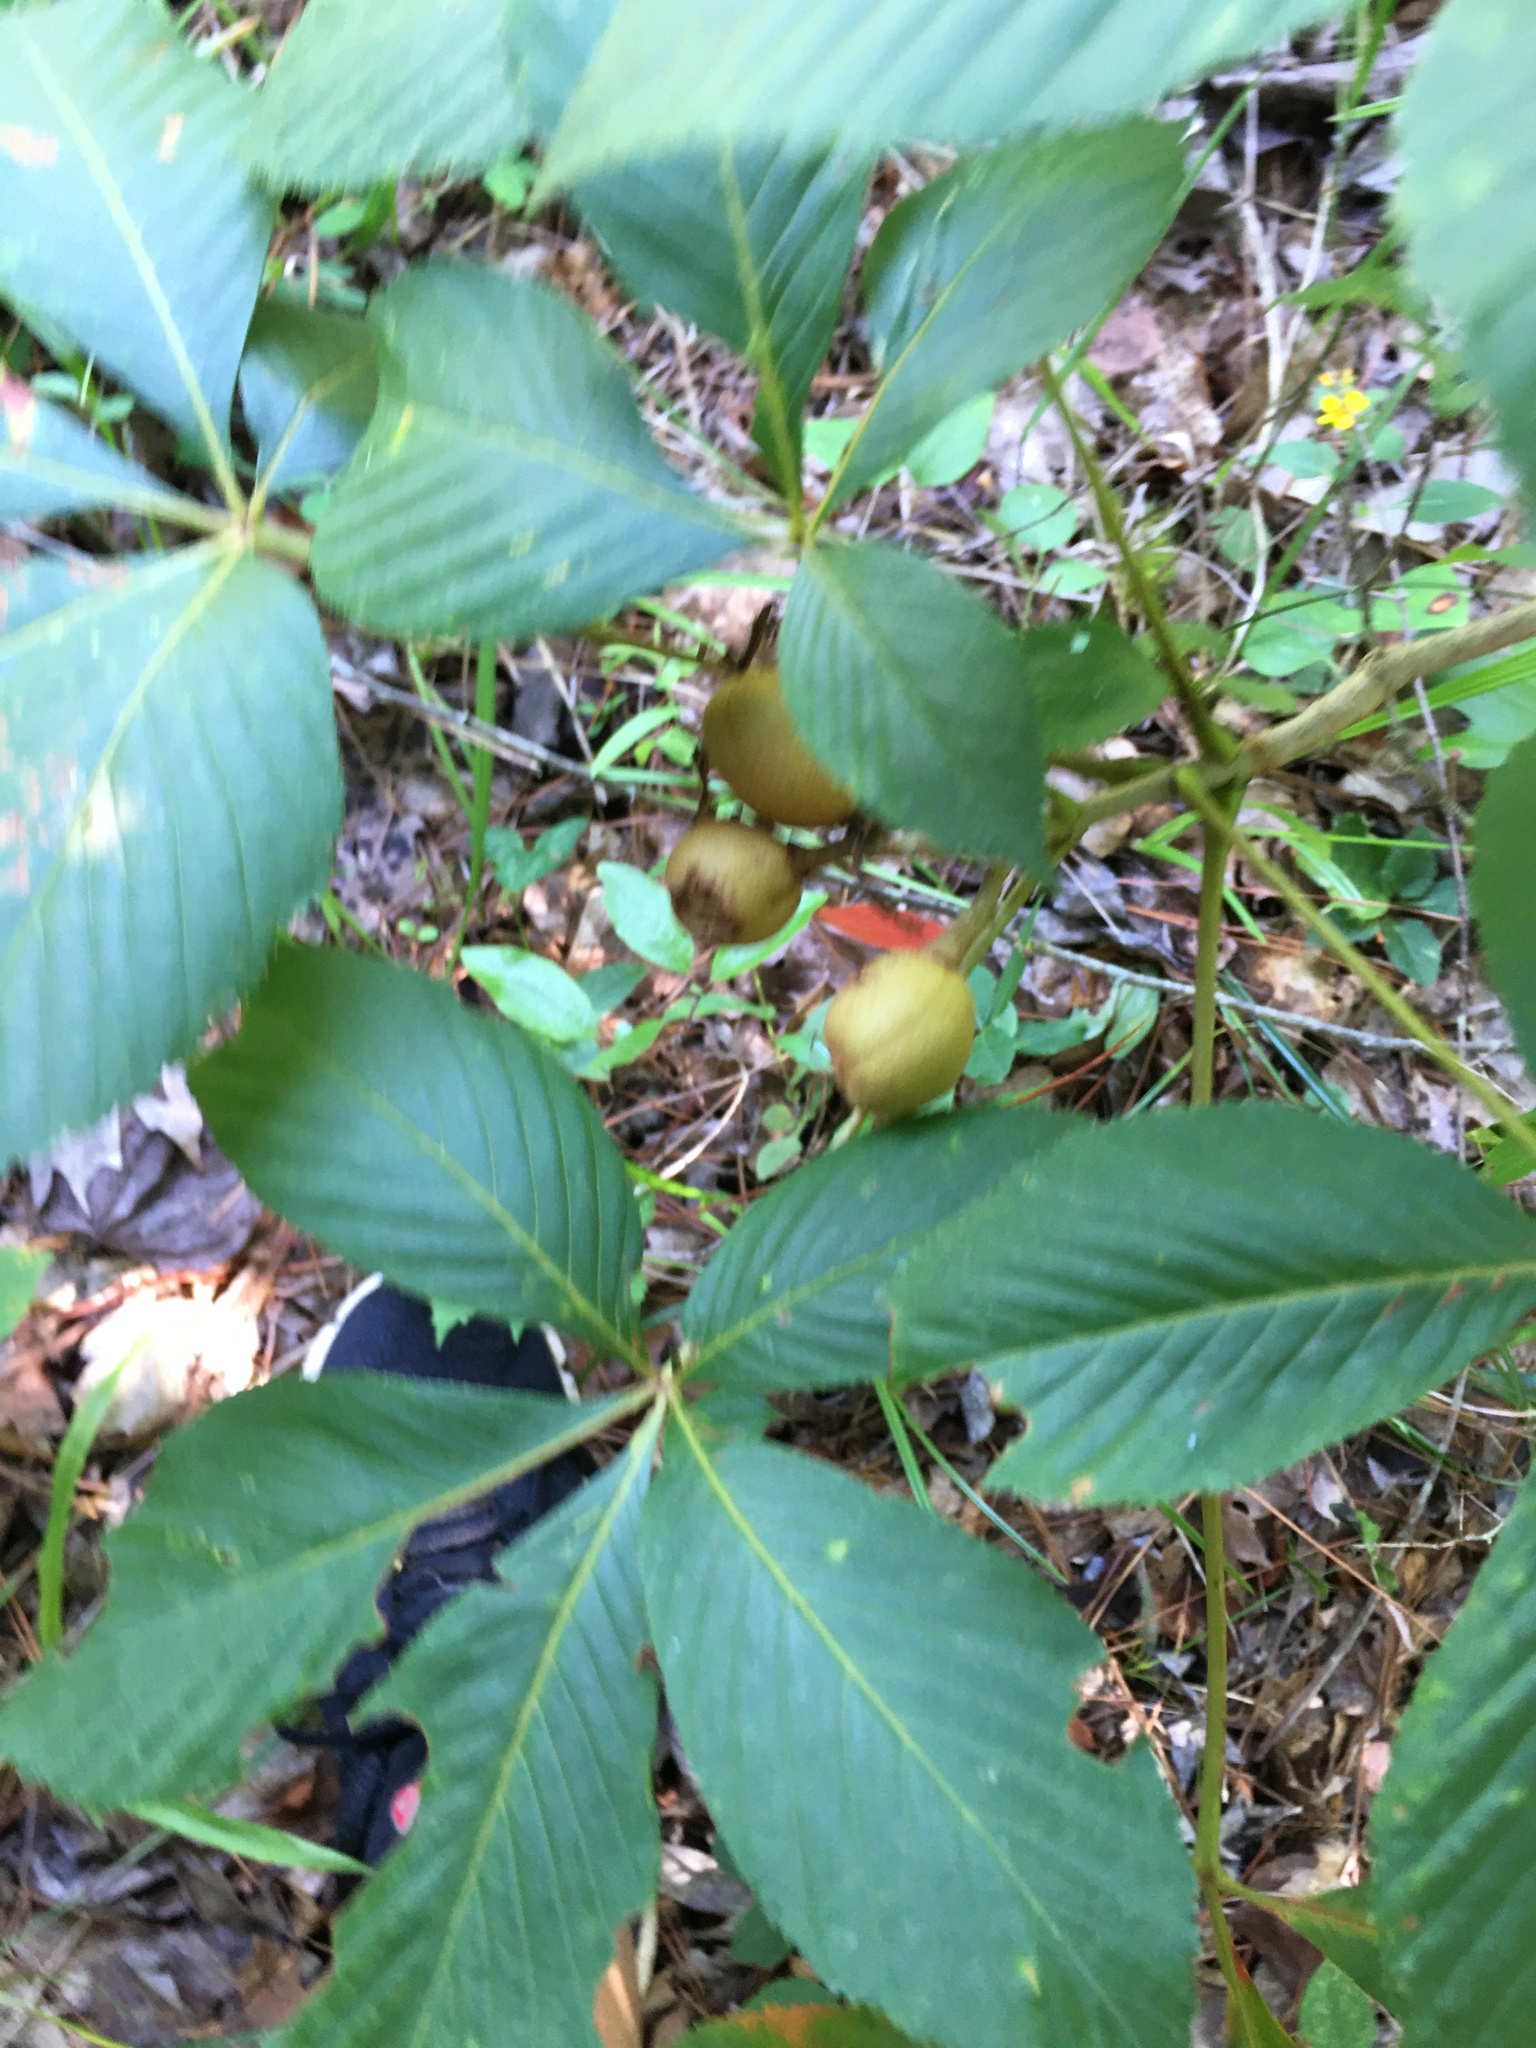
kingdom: Plantae
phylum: Tracheophyta
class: Magnoliopsida
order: Sapindales
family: Sapindaceae
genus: Aesculus
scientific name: Aesculus sylvatica
